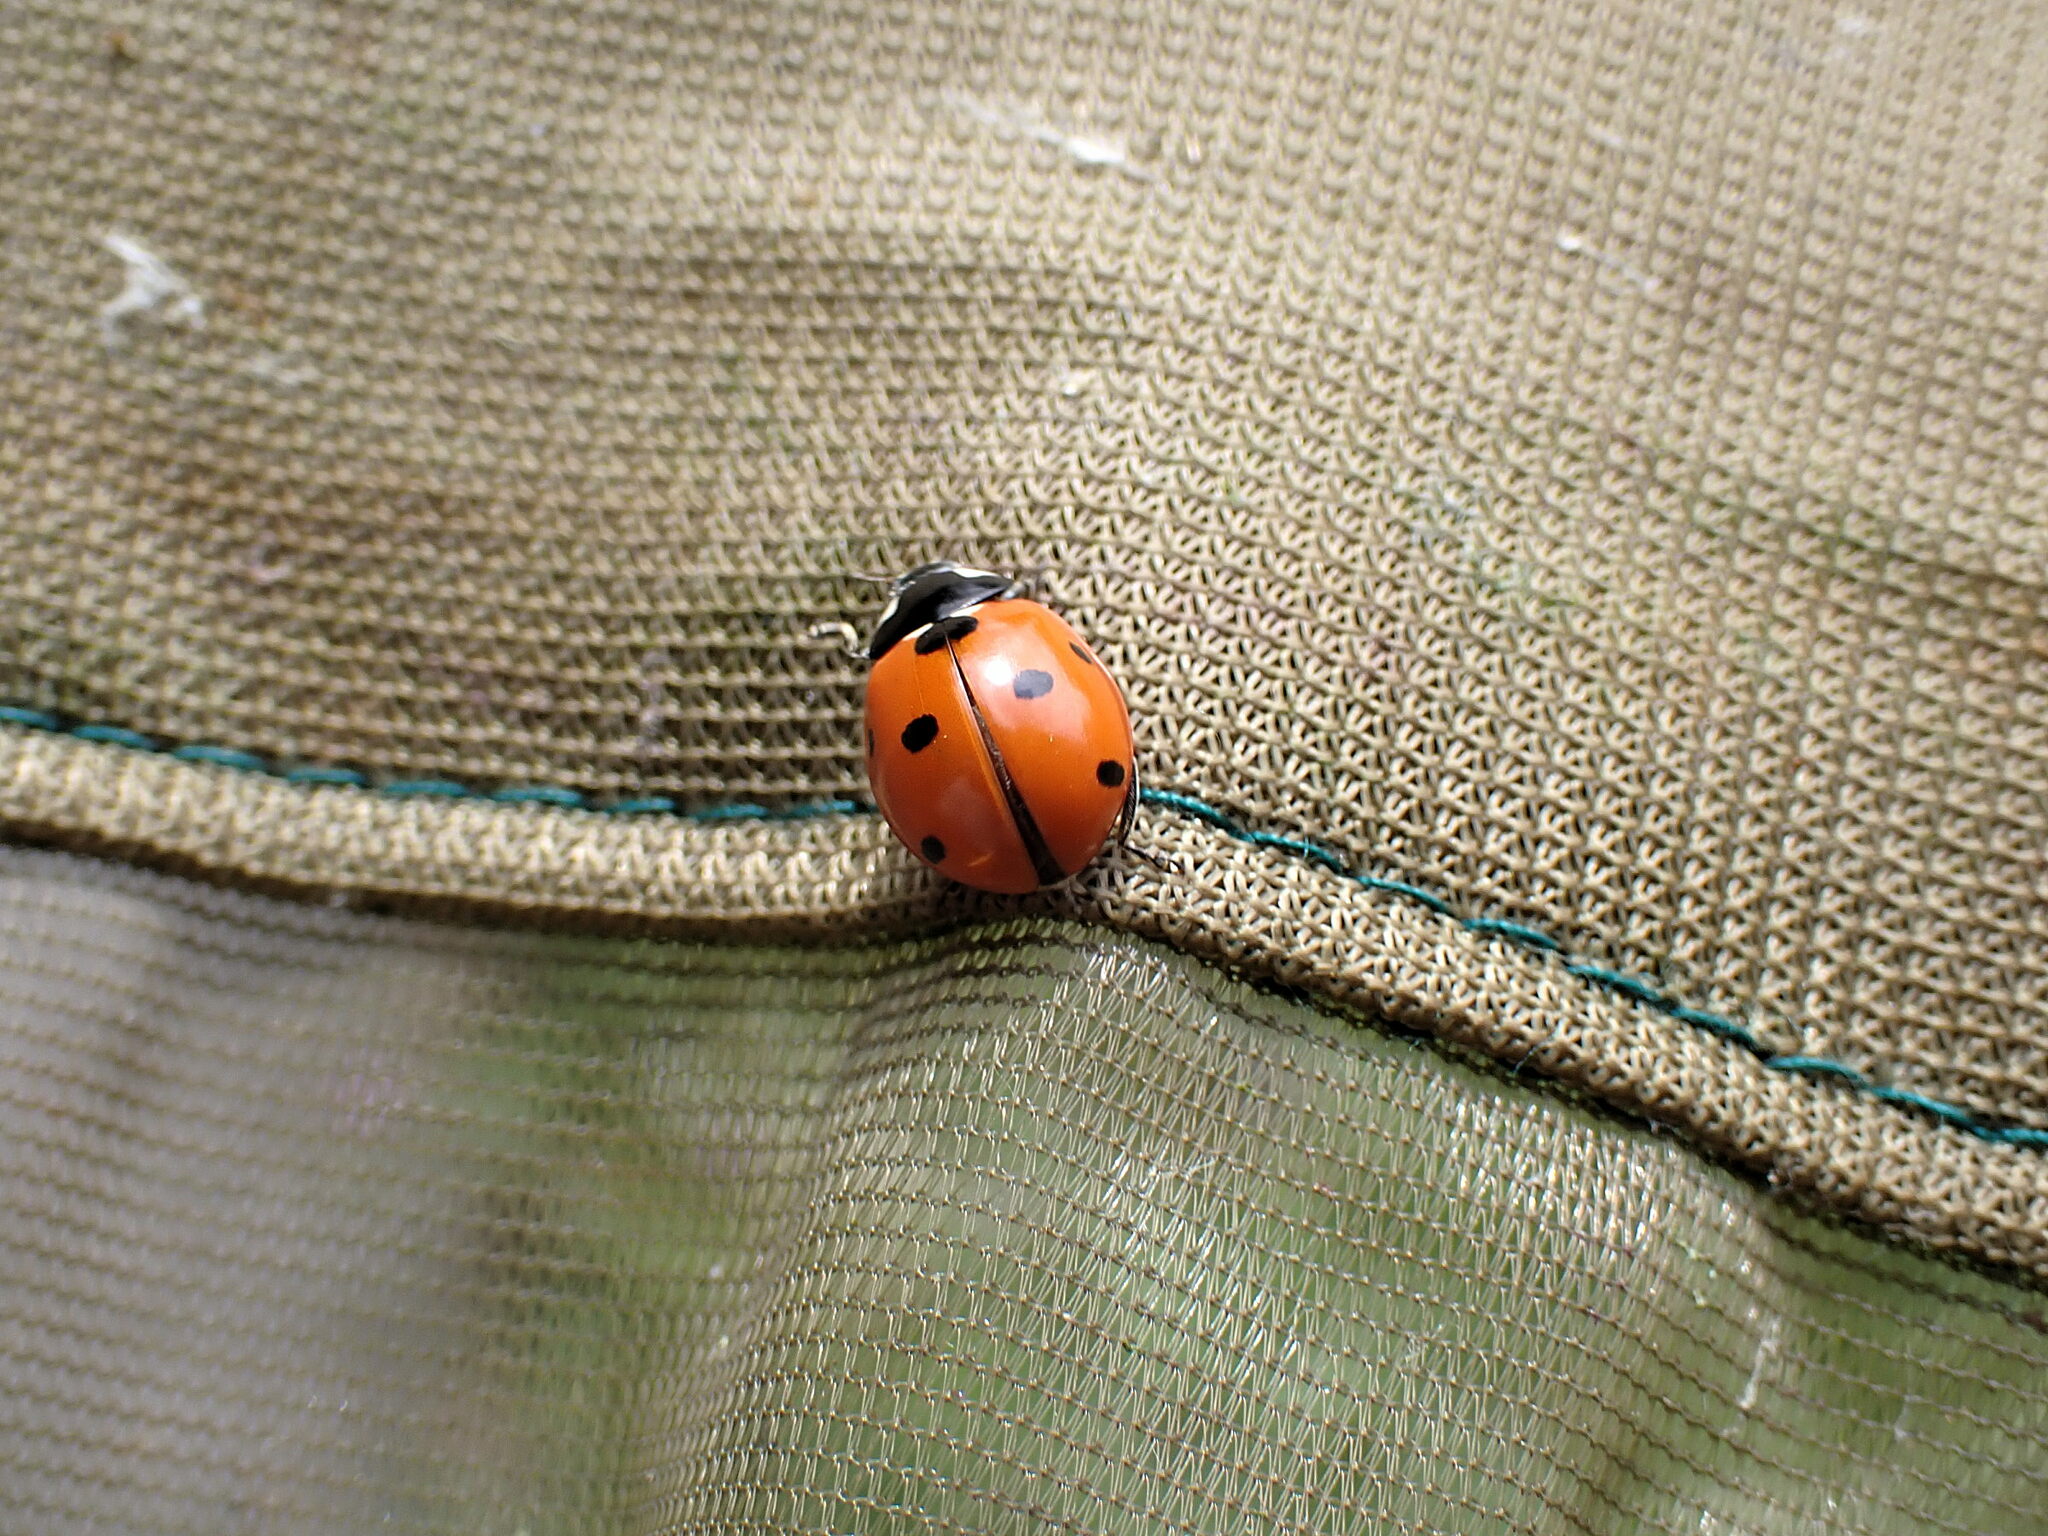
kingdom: Animalia
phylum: Arthropoda
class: Insecta
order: Coleoptera
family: Coccinellidae
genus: Coccinella
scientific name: Coccinella septempunctata
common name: Sevenspotted lady beetle
